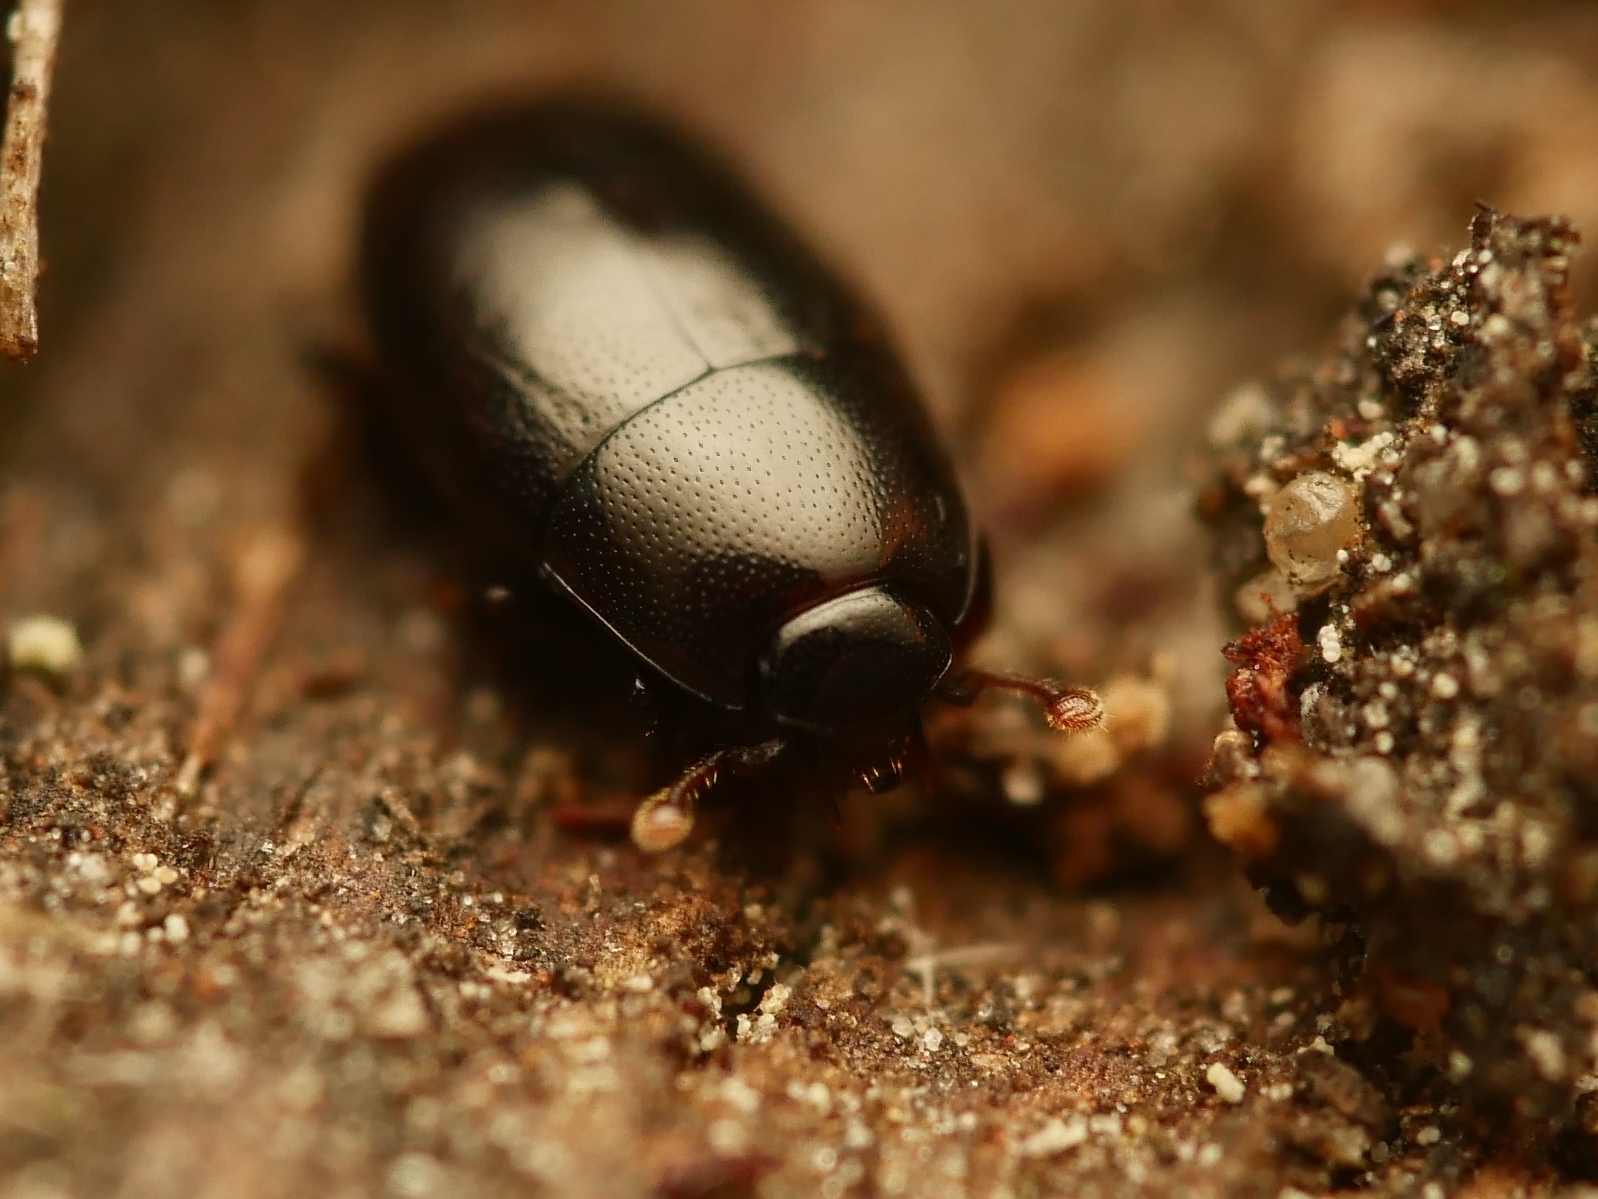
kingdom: Animalia
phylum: Arthropoda
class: Insecta
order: Coleoptera
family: Histeridae
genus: Paromalus
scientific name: Paromalus flavicornis
